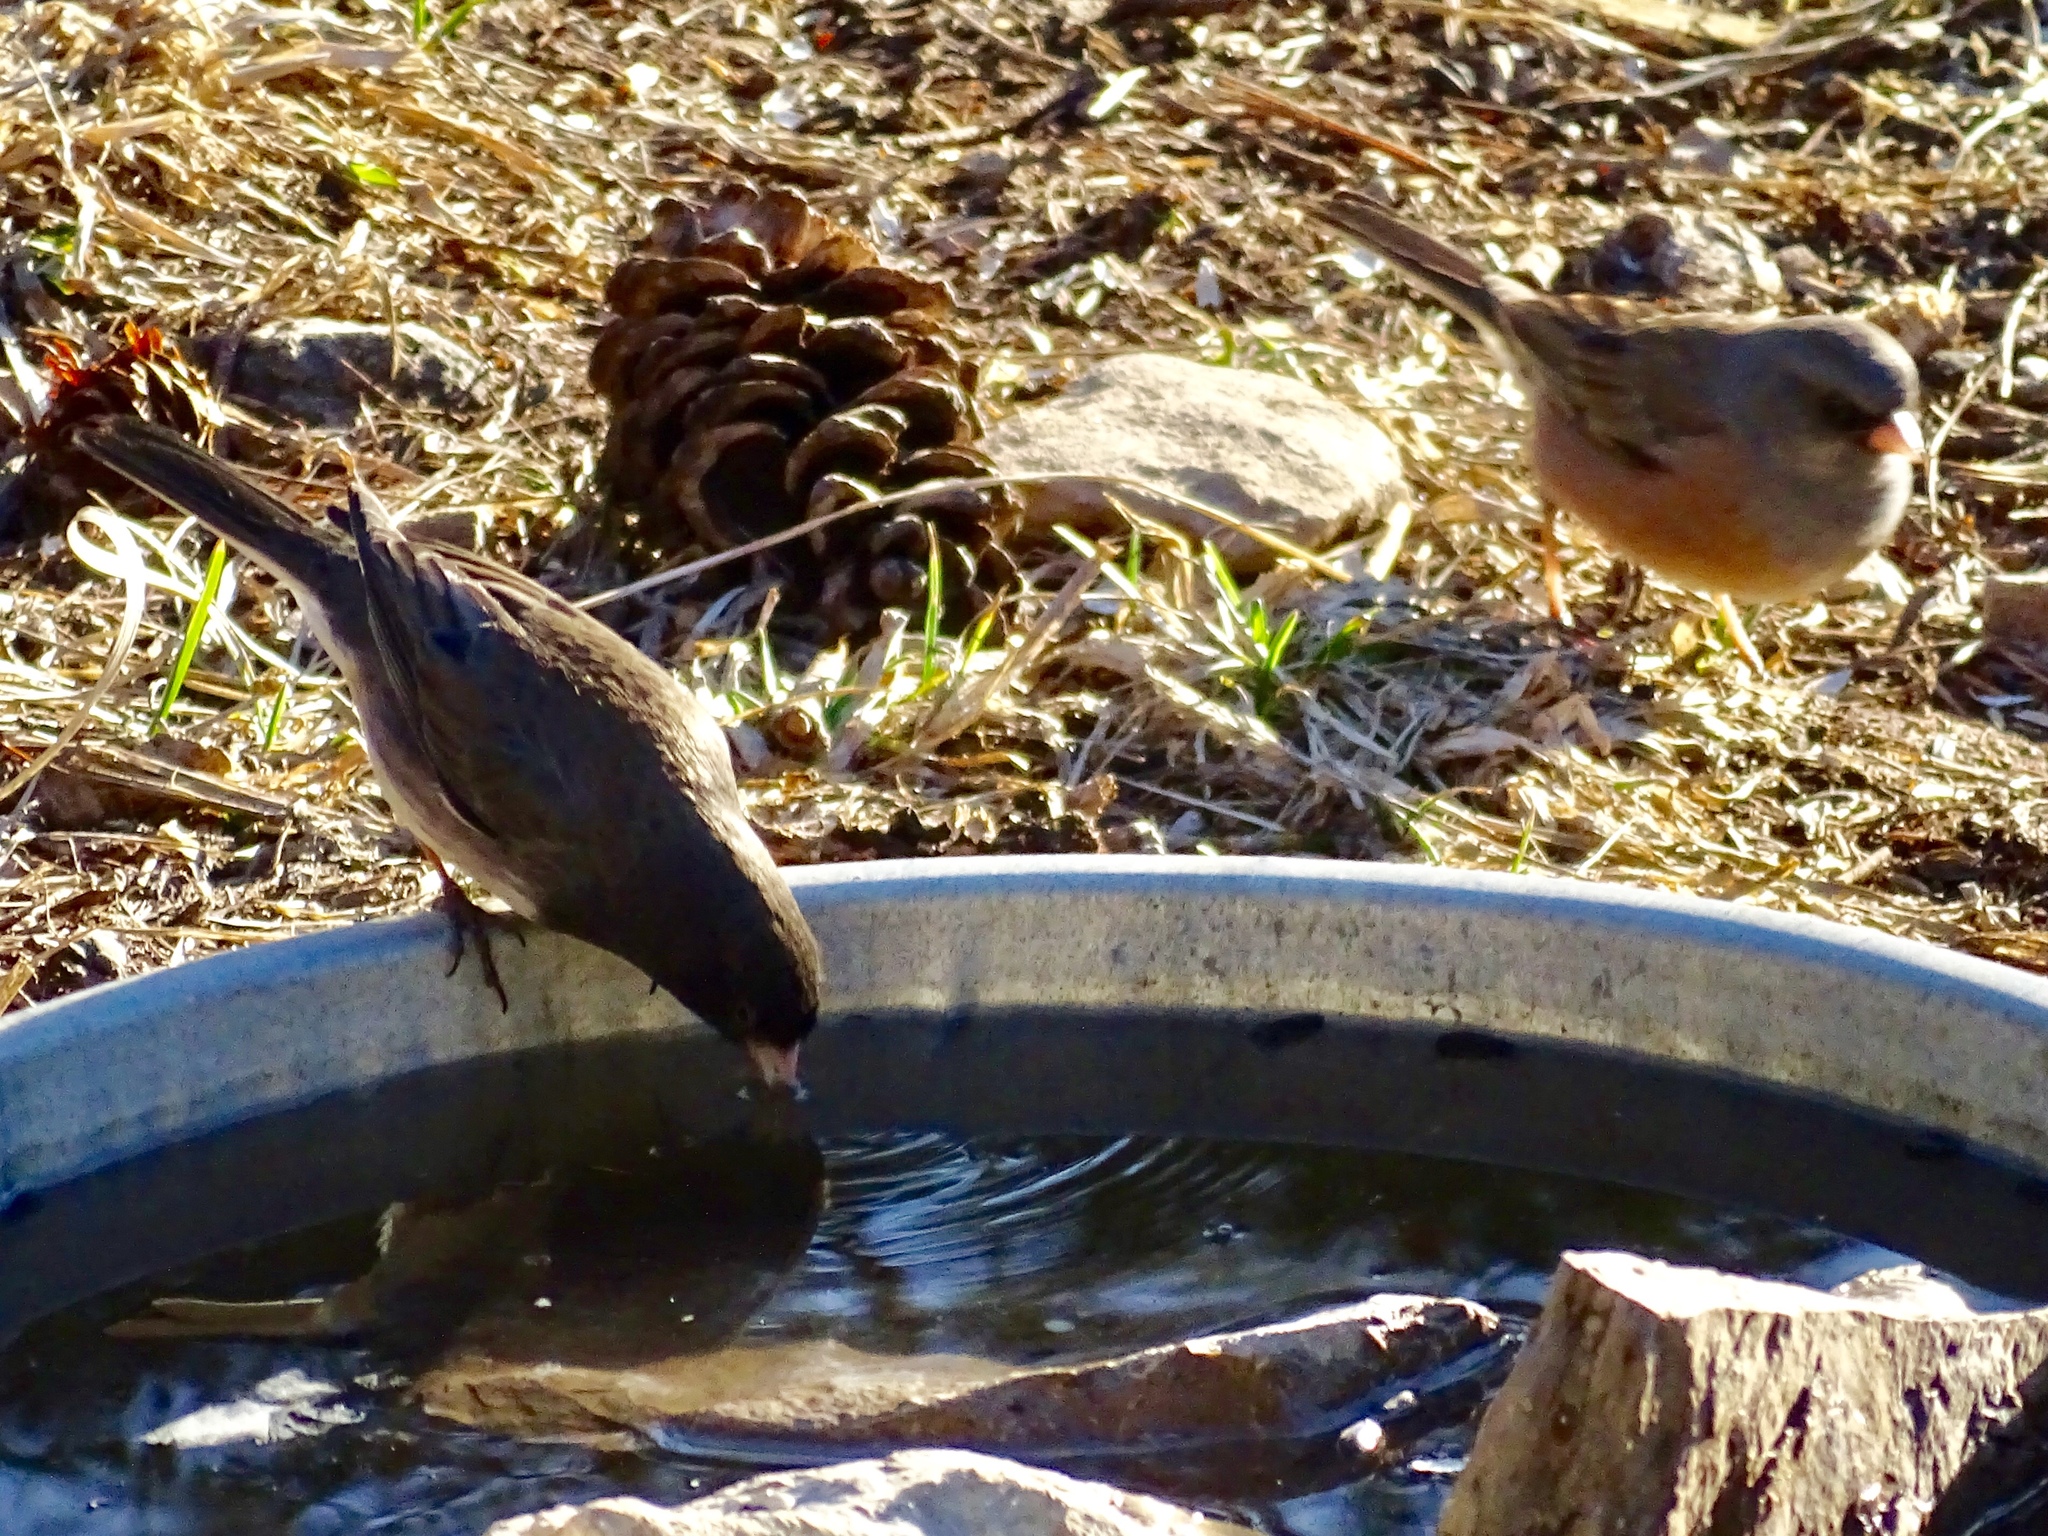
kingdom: Animalia
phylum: Chordata
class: Aves
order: Passeriformes
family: Passerellidae
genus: Junco
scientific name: Junco hyemalis
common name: Dark-eyed junco
